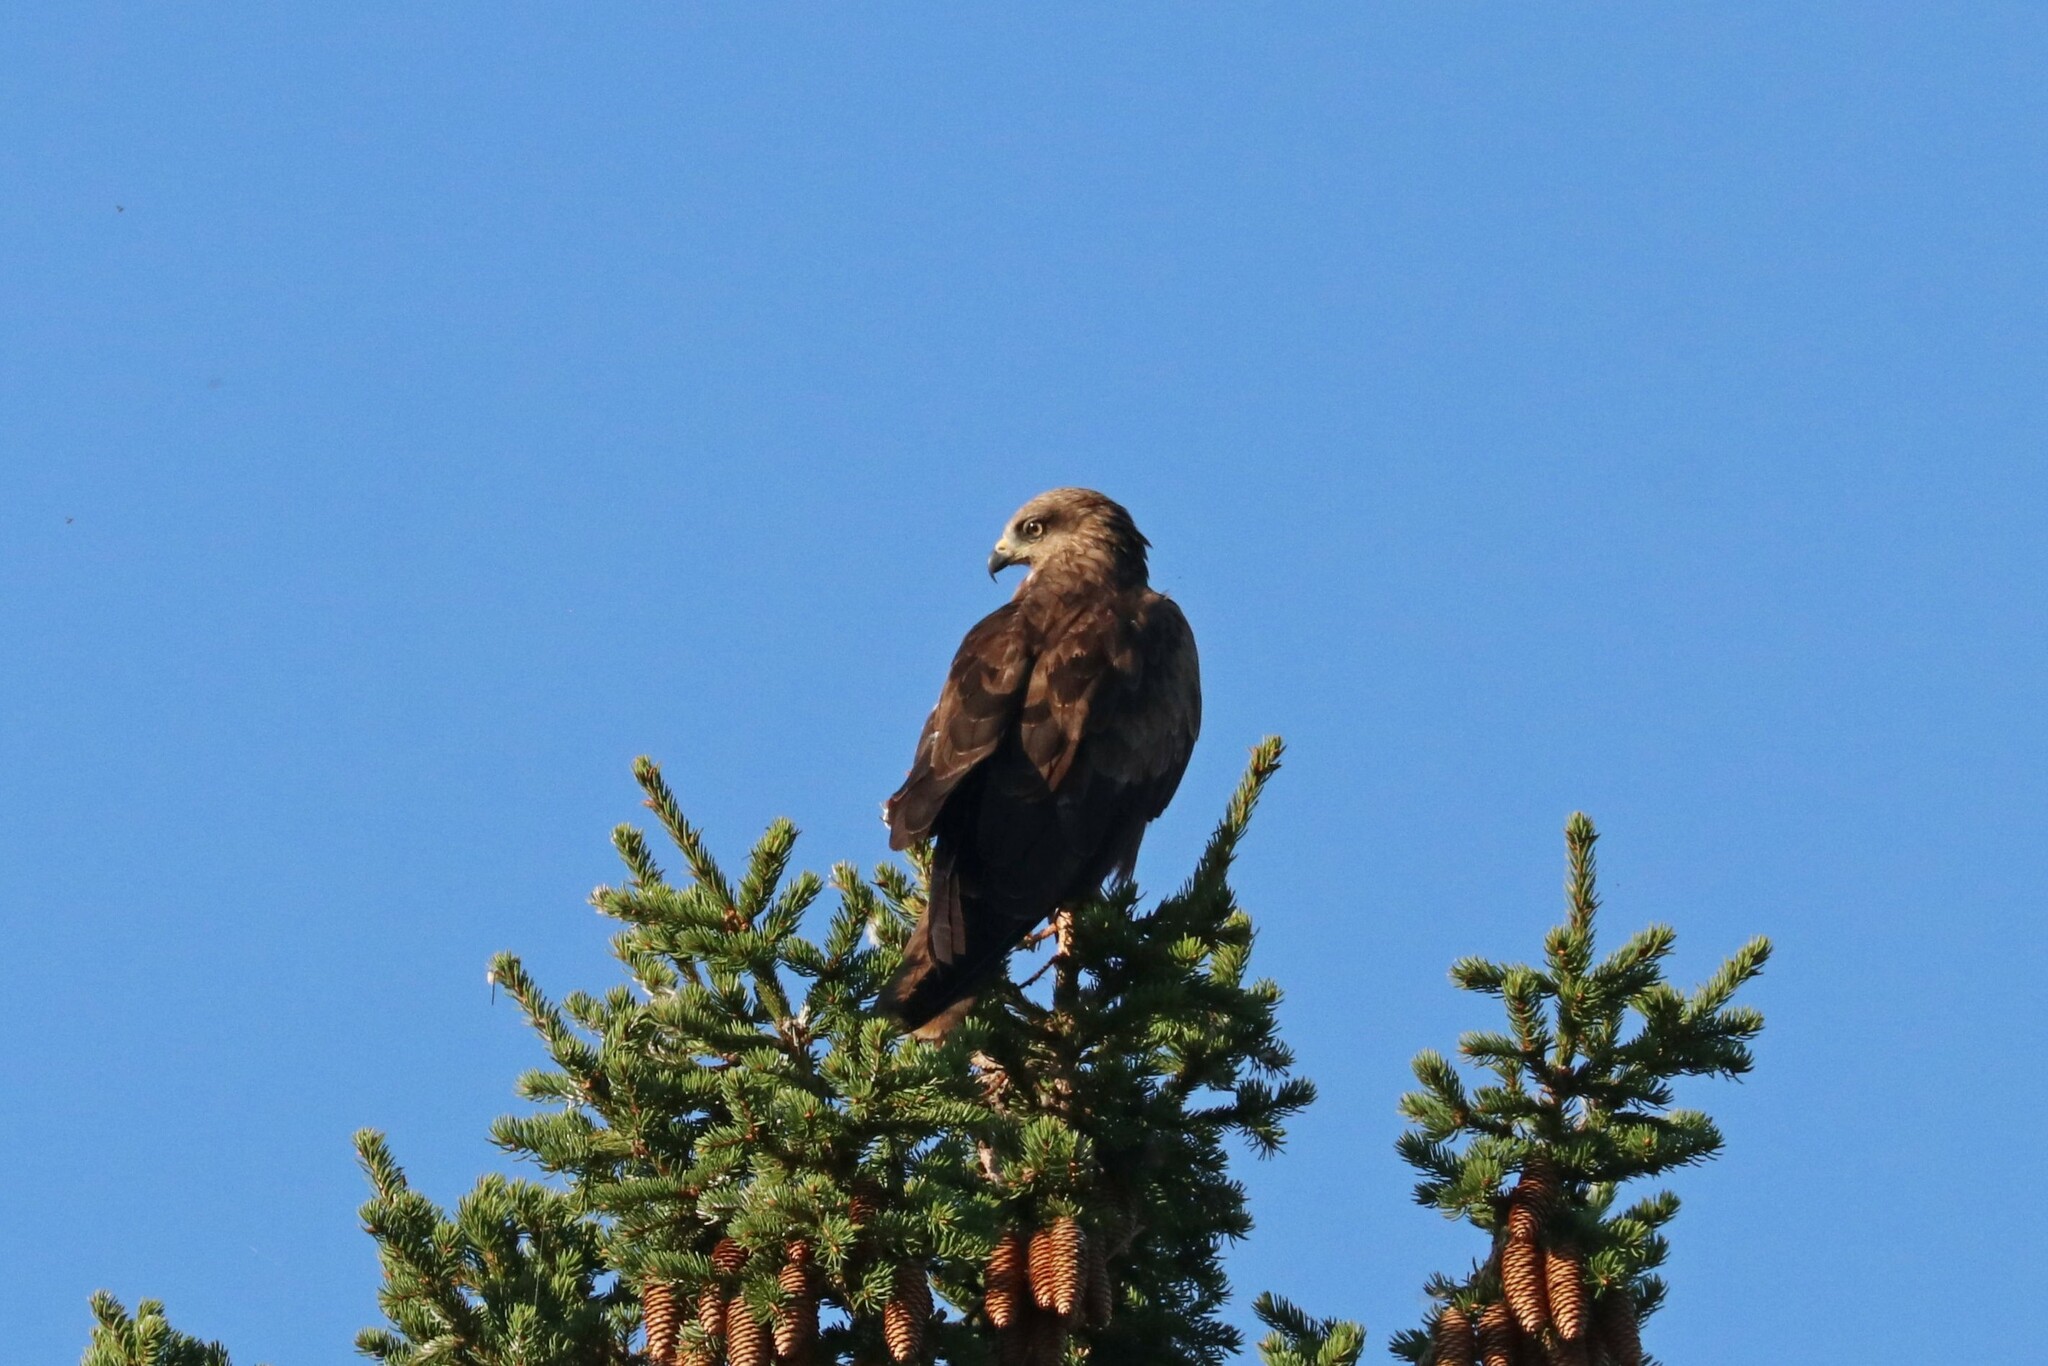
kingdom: Animalia
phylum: Chordata
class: Aves
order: Accipitriformes
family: Accipitridae
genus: Milvus
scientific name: Milvus migrans
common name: Black kite
